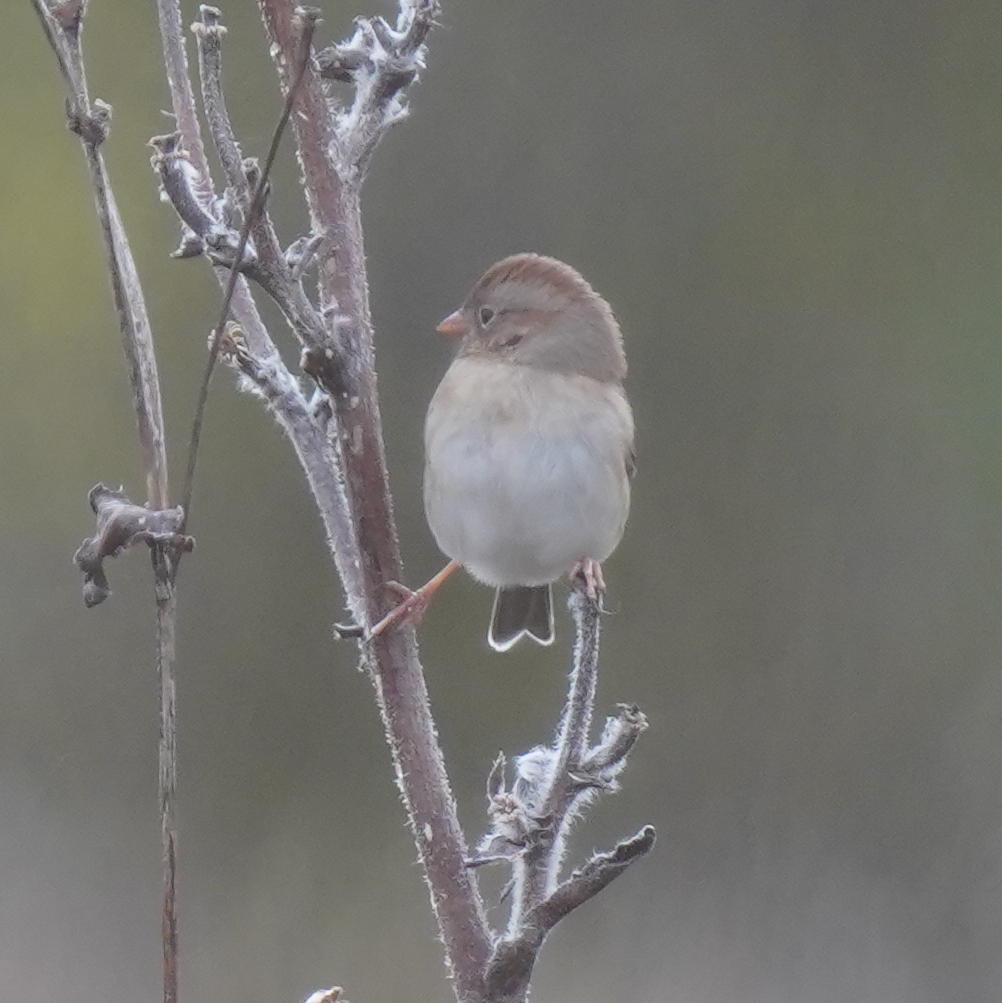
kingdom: Animalia
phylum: Chordata
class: Aves
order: Passeriformes
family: Passerellidae
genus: Spizella
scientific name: Spizella pusilla
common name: Field sparrow
